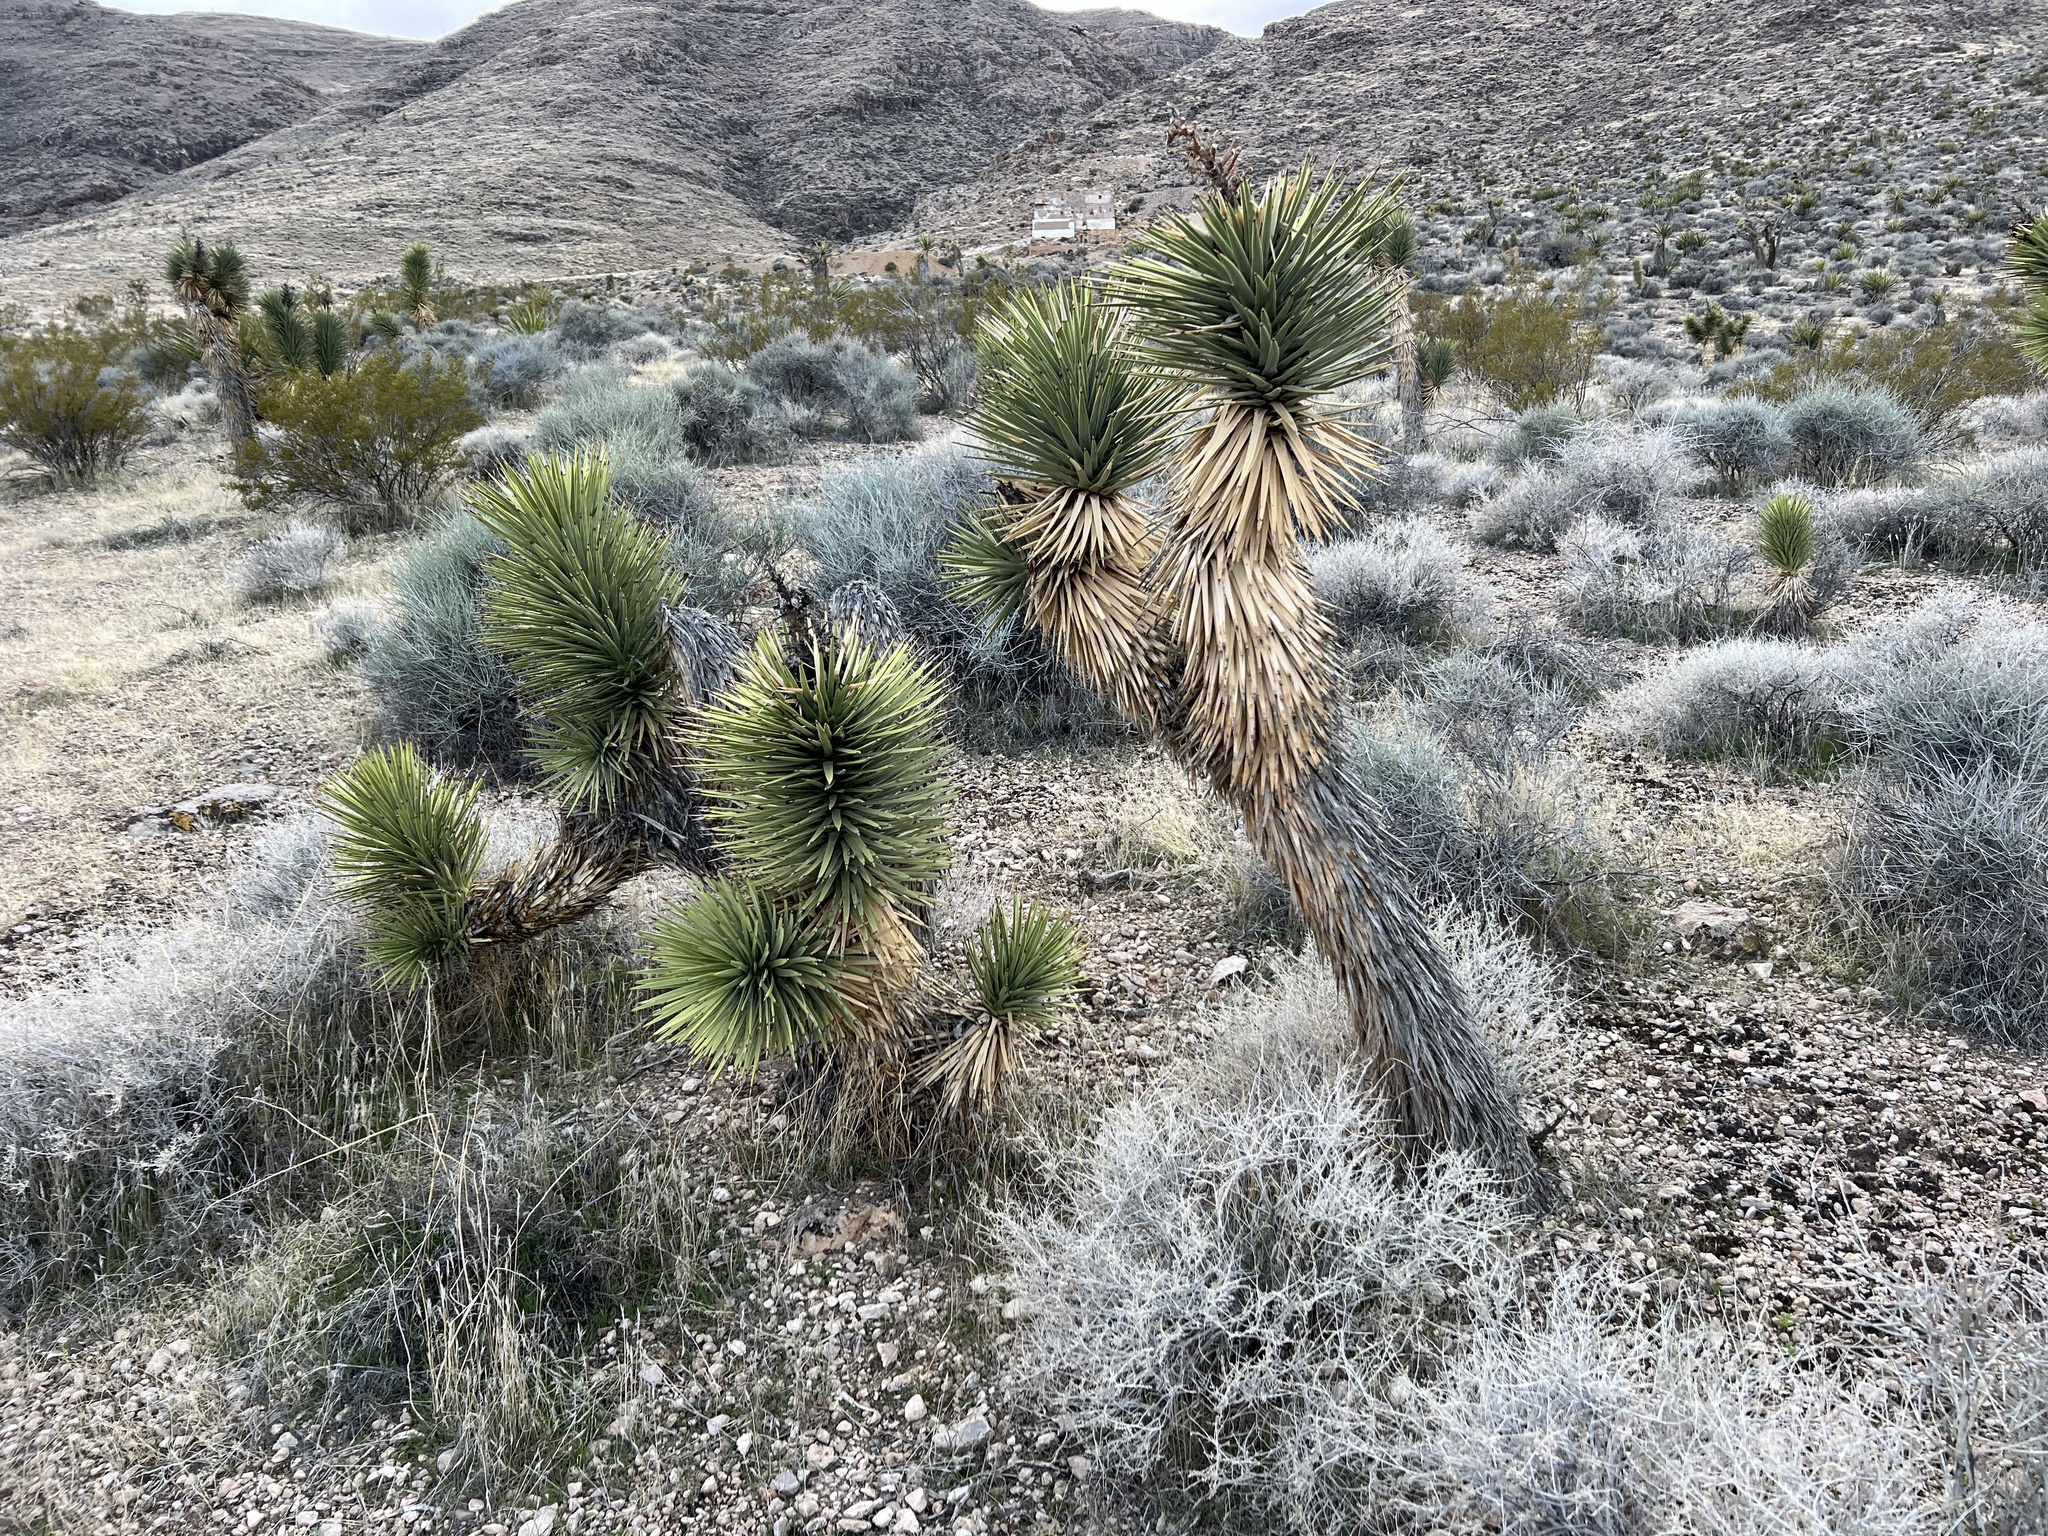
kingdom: Plantae
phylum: Tracheophyta
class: Liliopsida
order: Asparagales
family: Asparagaceae
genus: Yucca
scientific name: Yucca brevifolia
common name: Joshua tree
